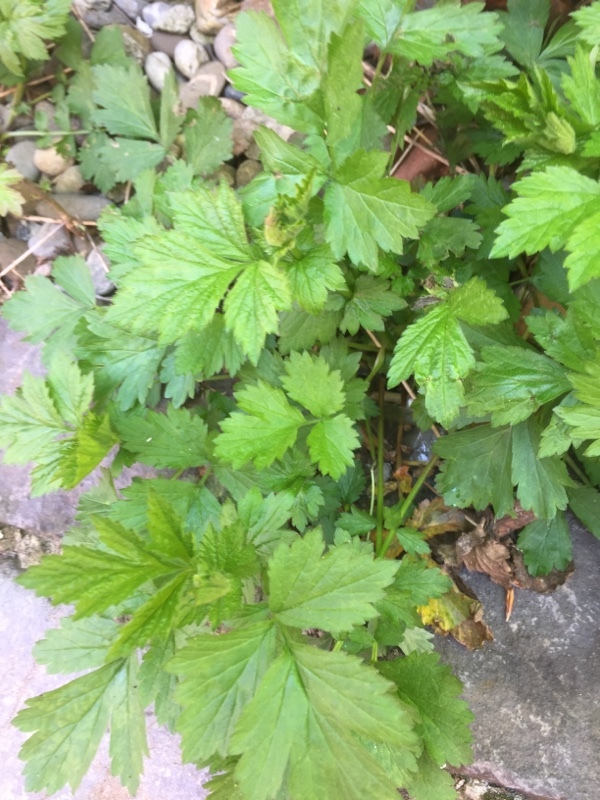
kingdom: Plantae
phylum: Tracheophyta
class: Magnoliopsida
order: Rosales
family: Rosaceae
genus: Geum
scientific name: Geum urbanum
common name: Wood avens
